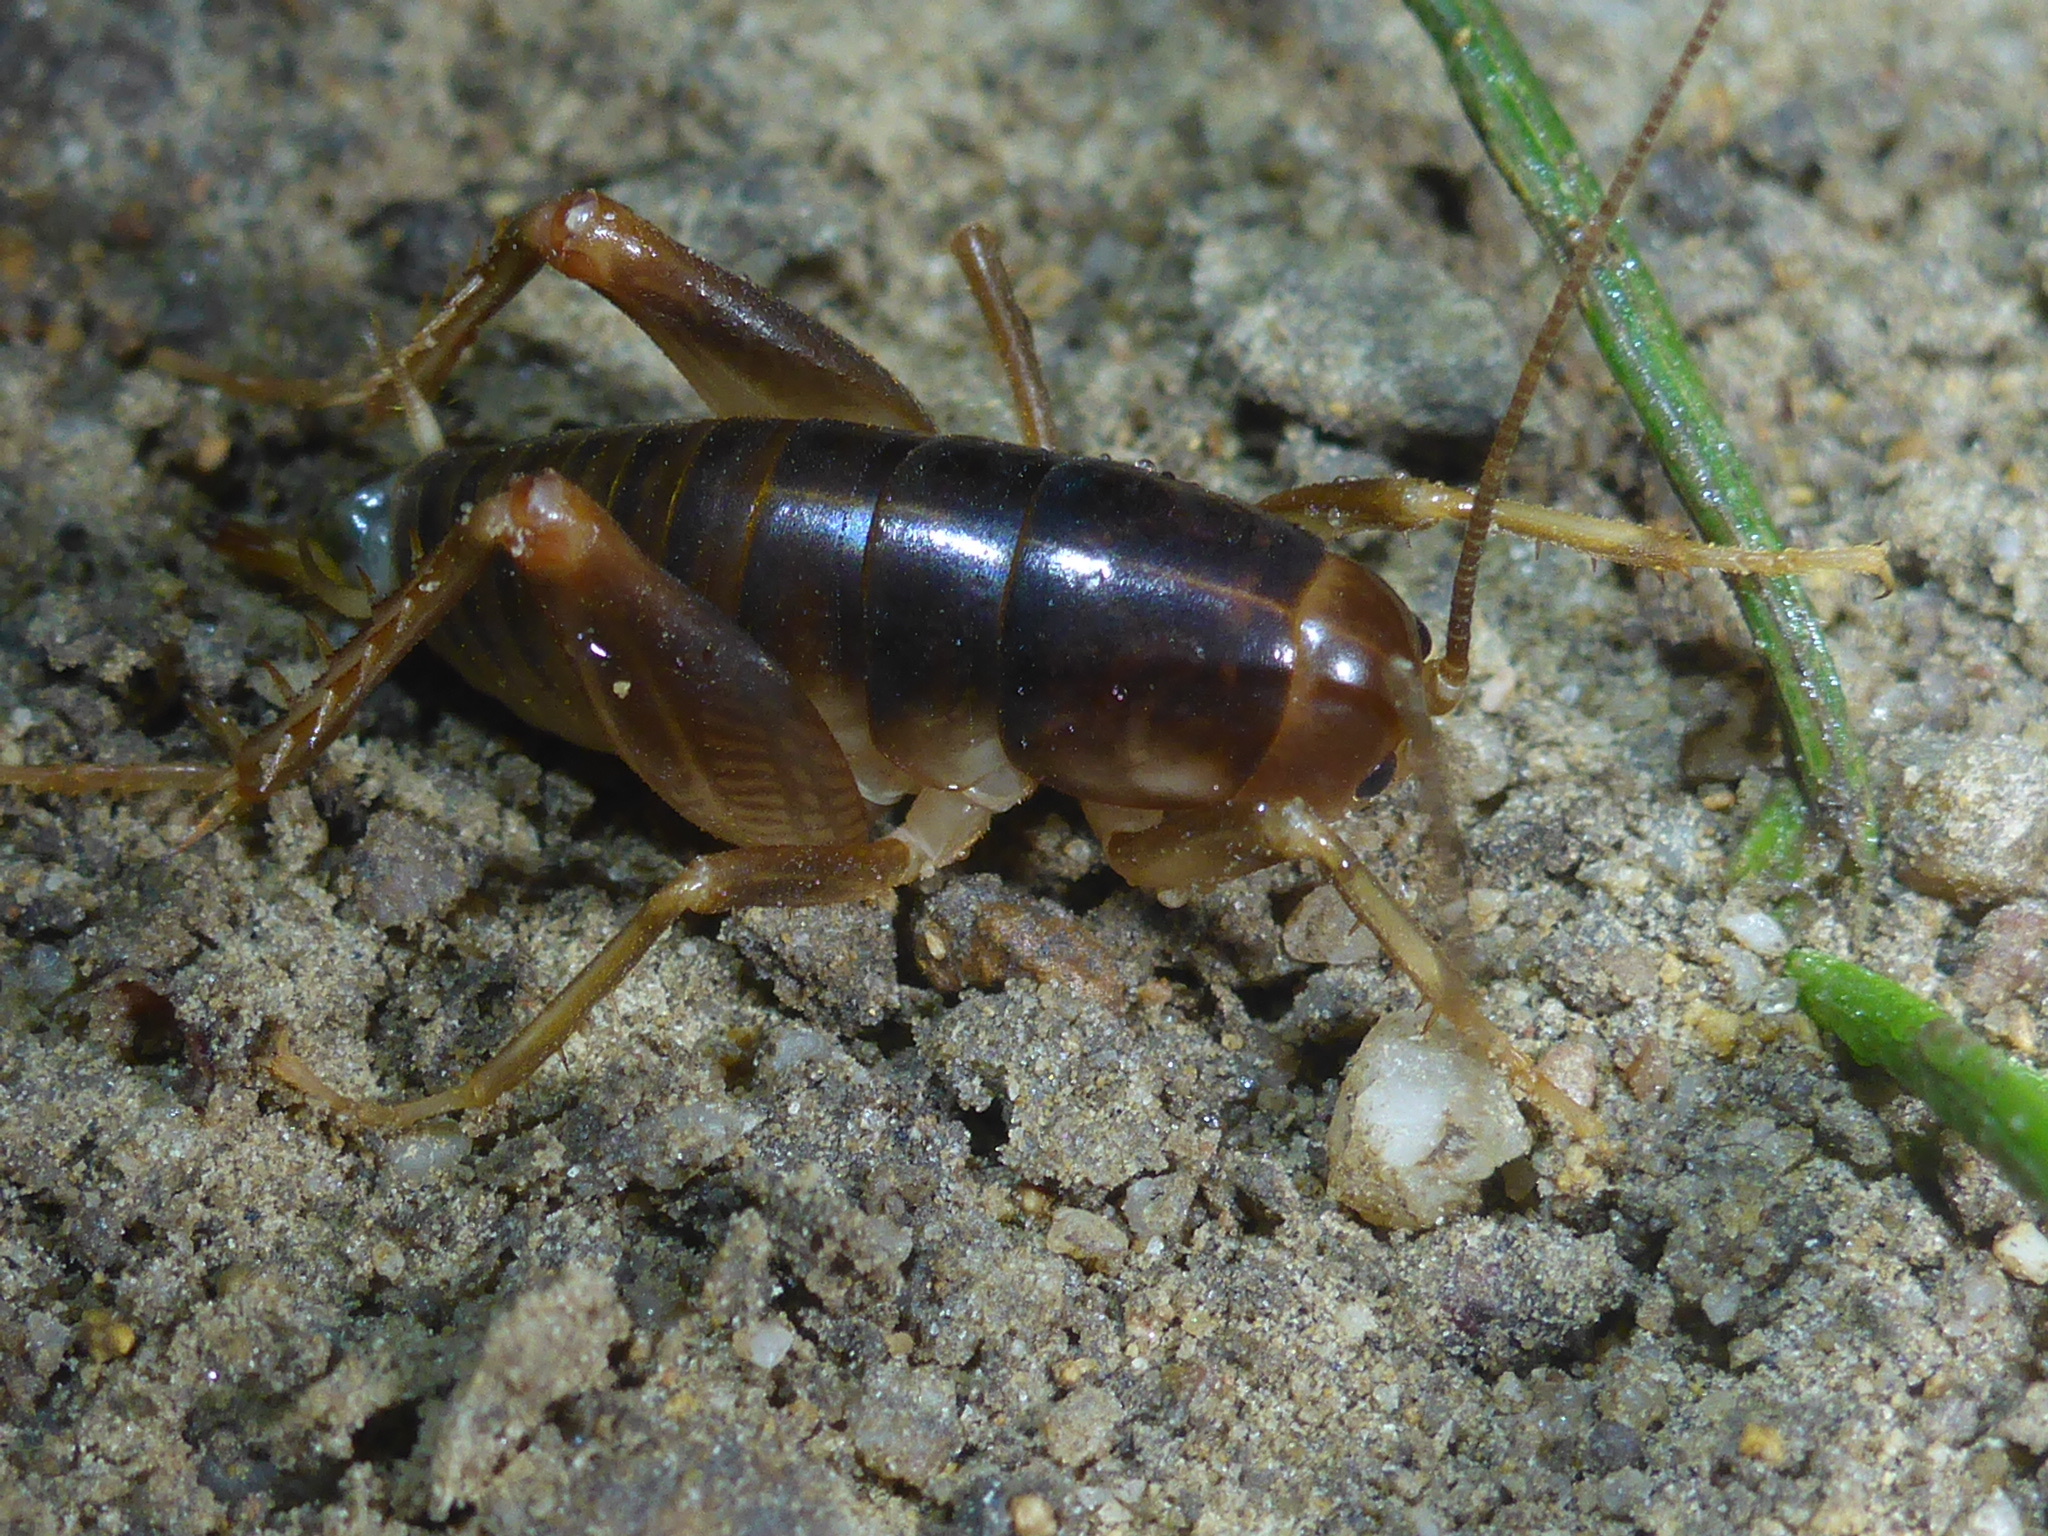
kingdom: Animalia
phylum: Arthropoda
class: Insecta
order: Orthoptera
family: Rhaphidophoridae
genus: Ceuthophilus
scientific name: Ceuthophilus californianus
